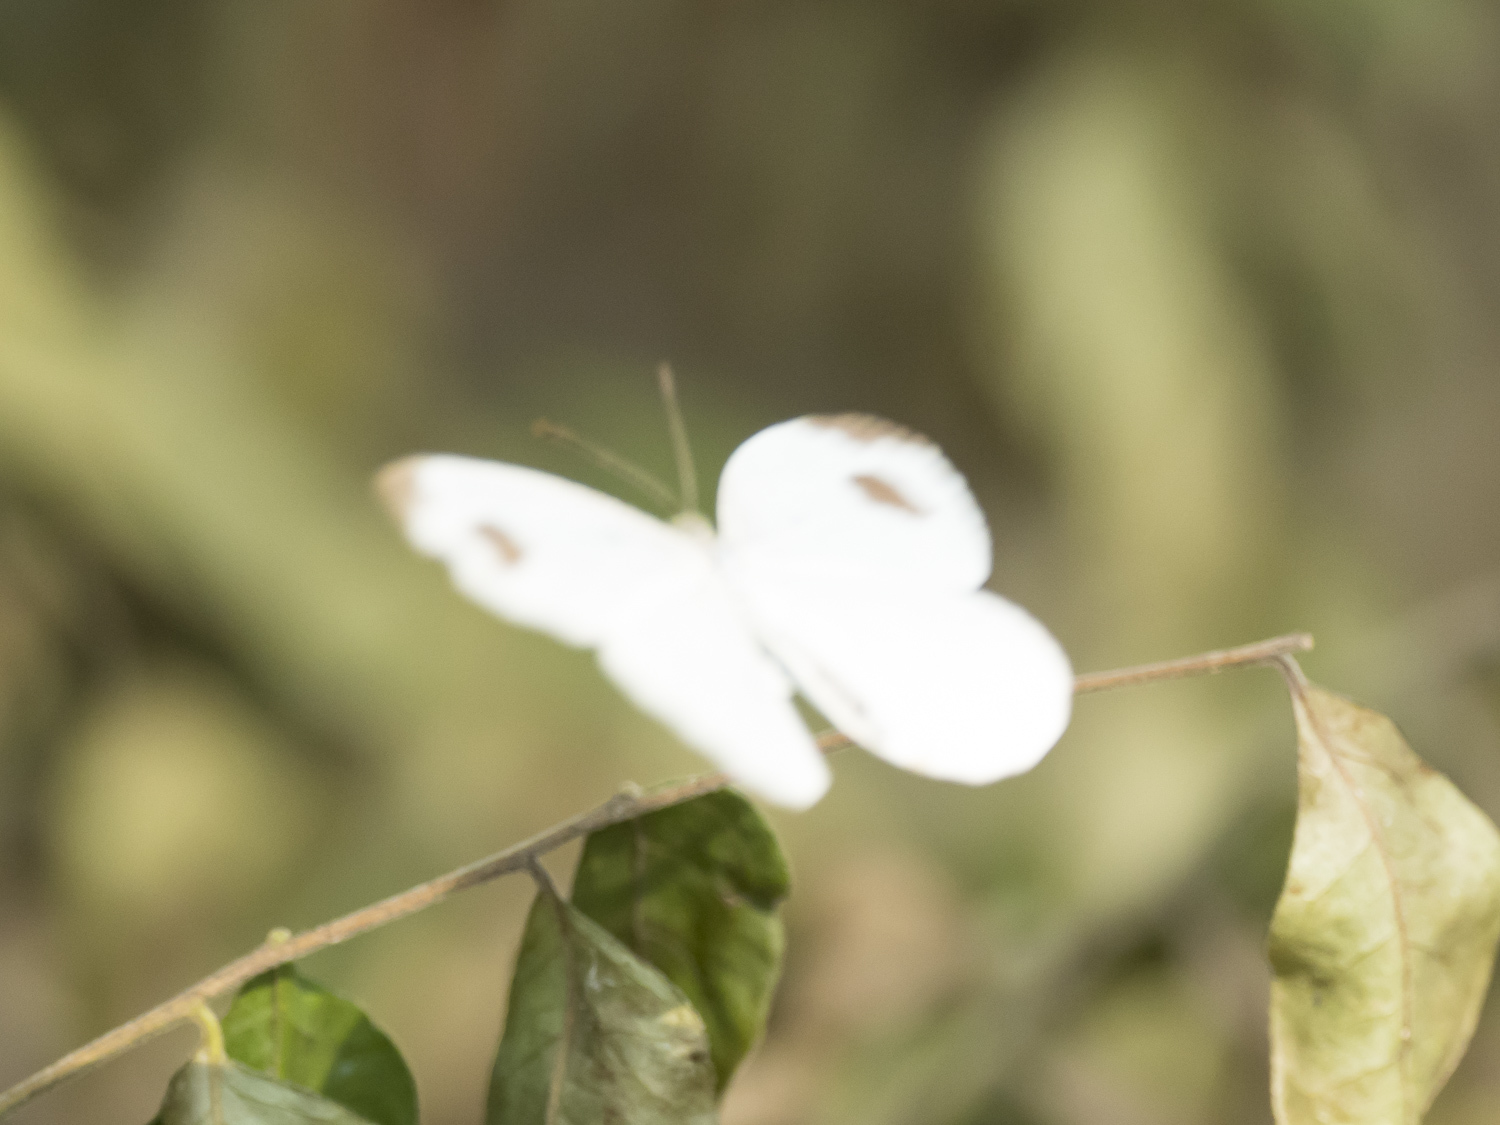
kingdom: Animalia
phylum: Arthropoda
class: Insecta
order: Lepidoptera
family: Pieridae
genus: Leptosia
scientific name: Leptosia nina
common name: Psyche
